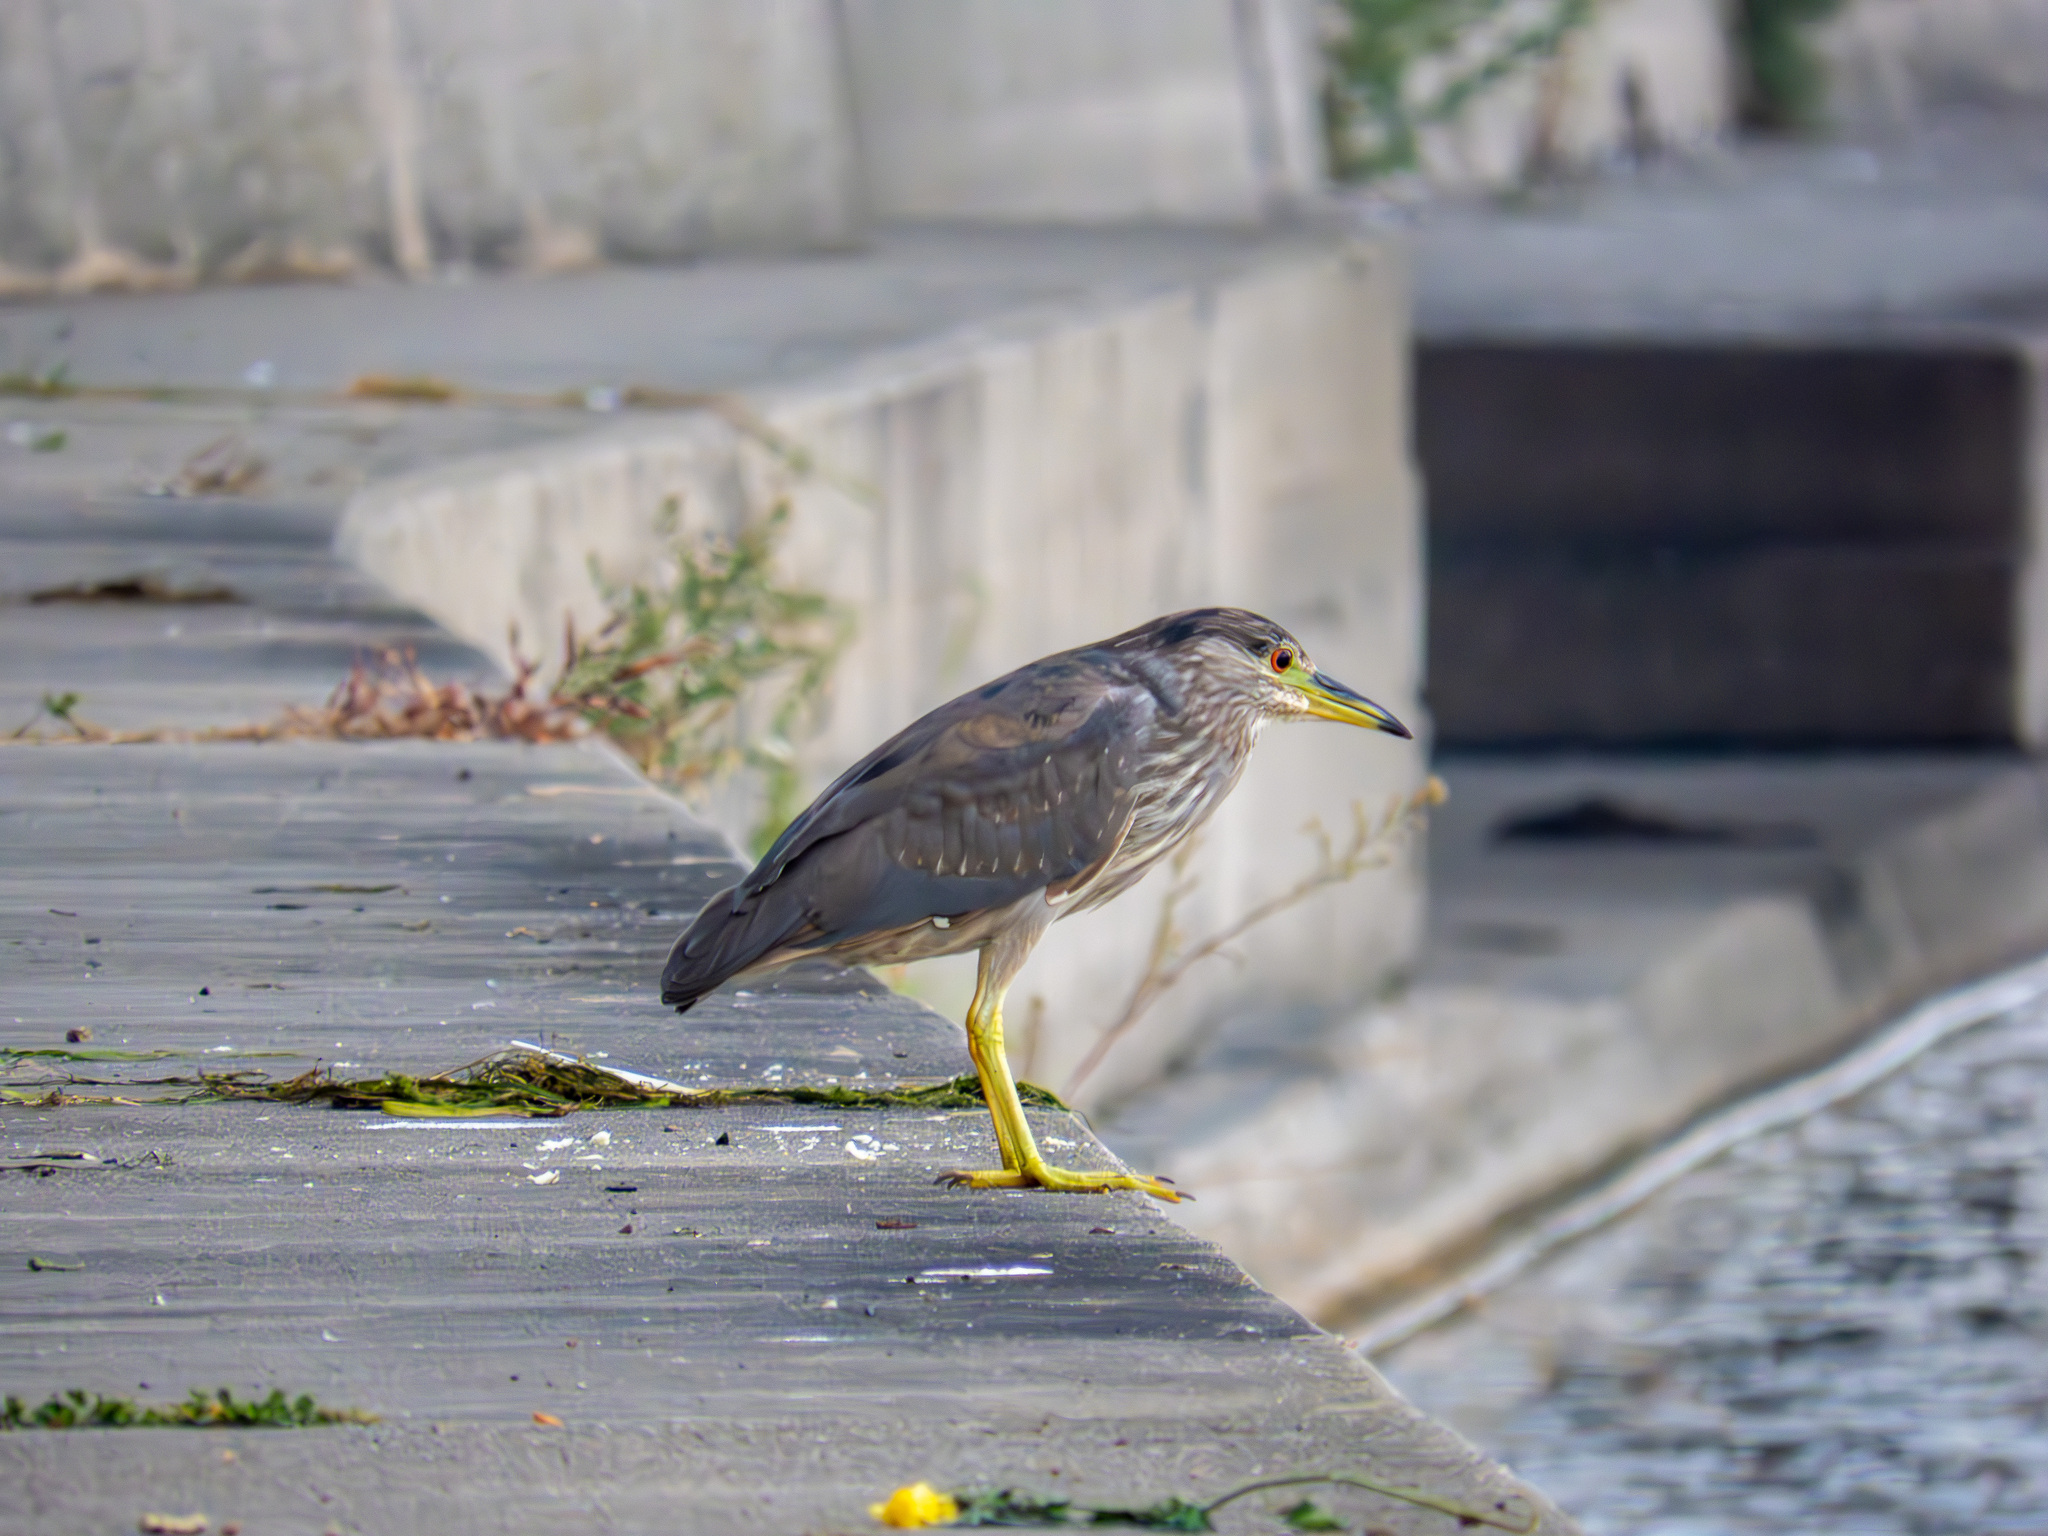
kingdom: Animalia
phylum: Chordata
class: Aves
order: Pelecaniformes
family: Ardeidae
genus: Nycticorax
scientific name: Nycticorax nycticorax
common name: Black-crowned night heron
